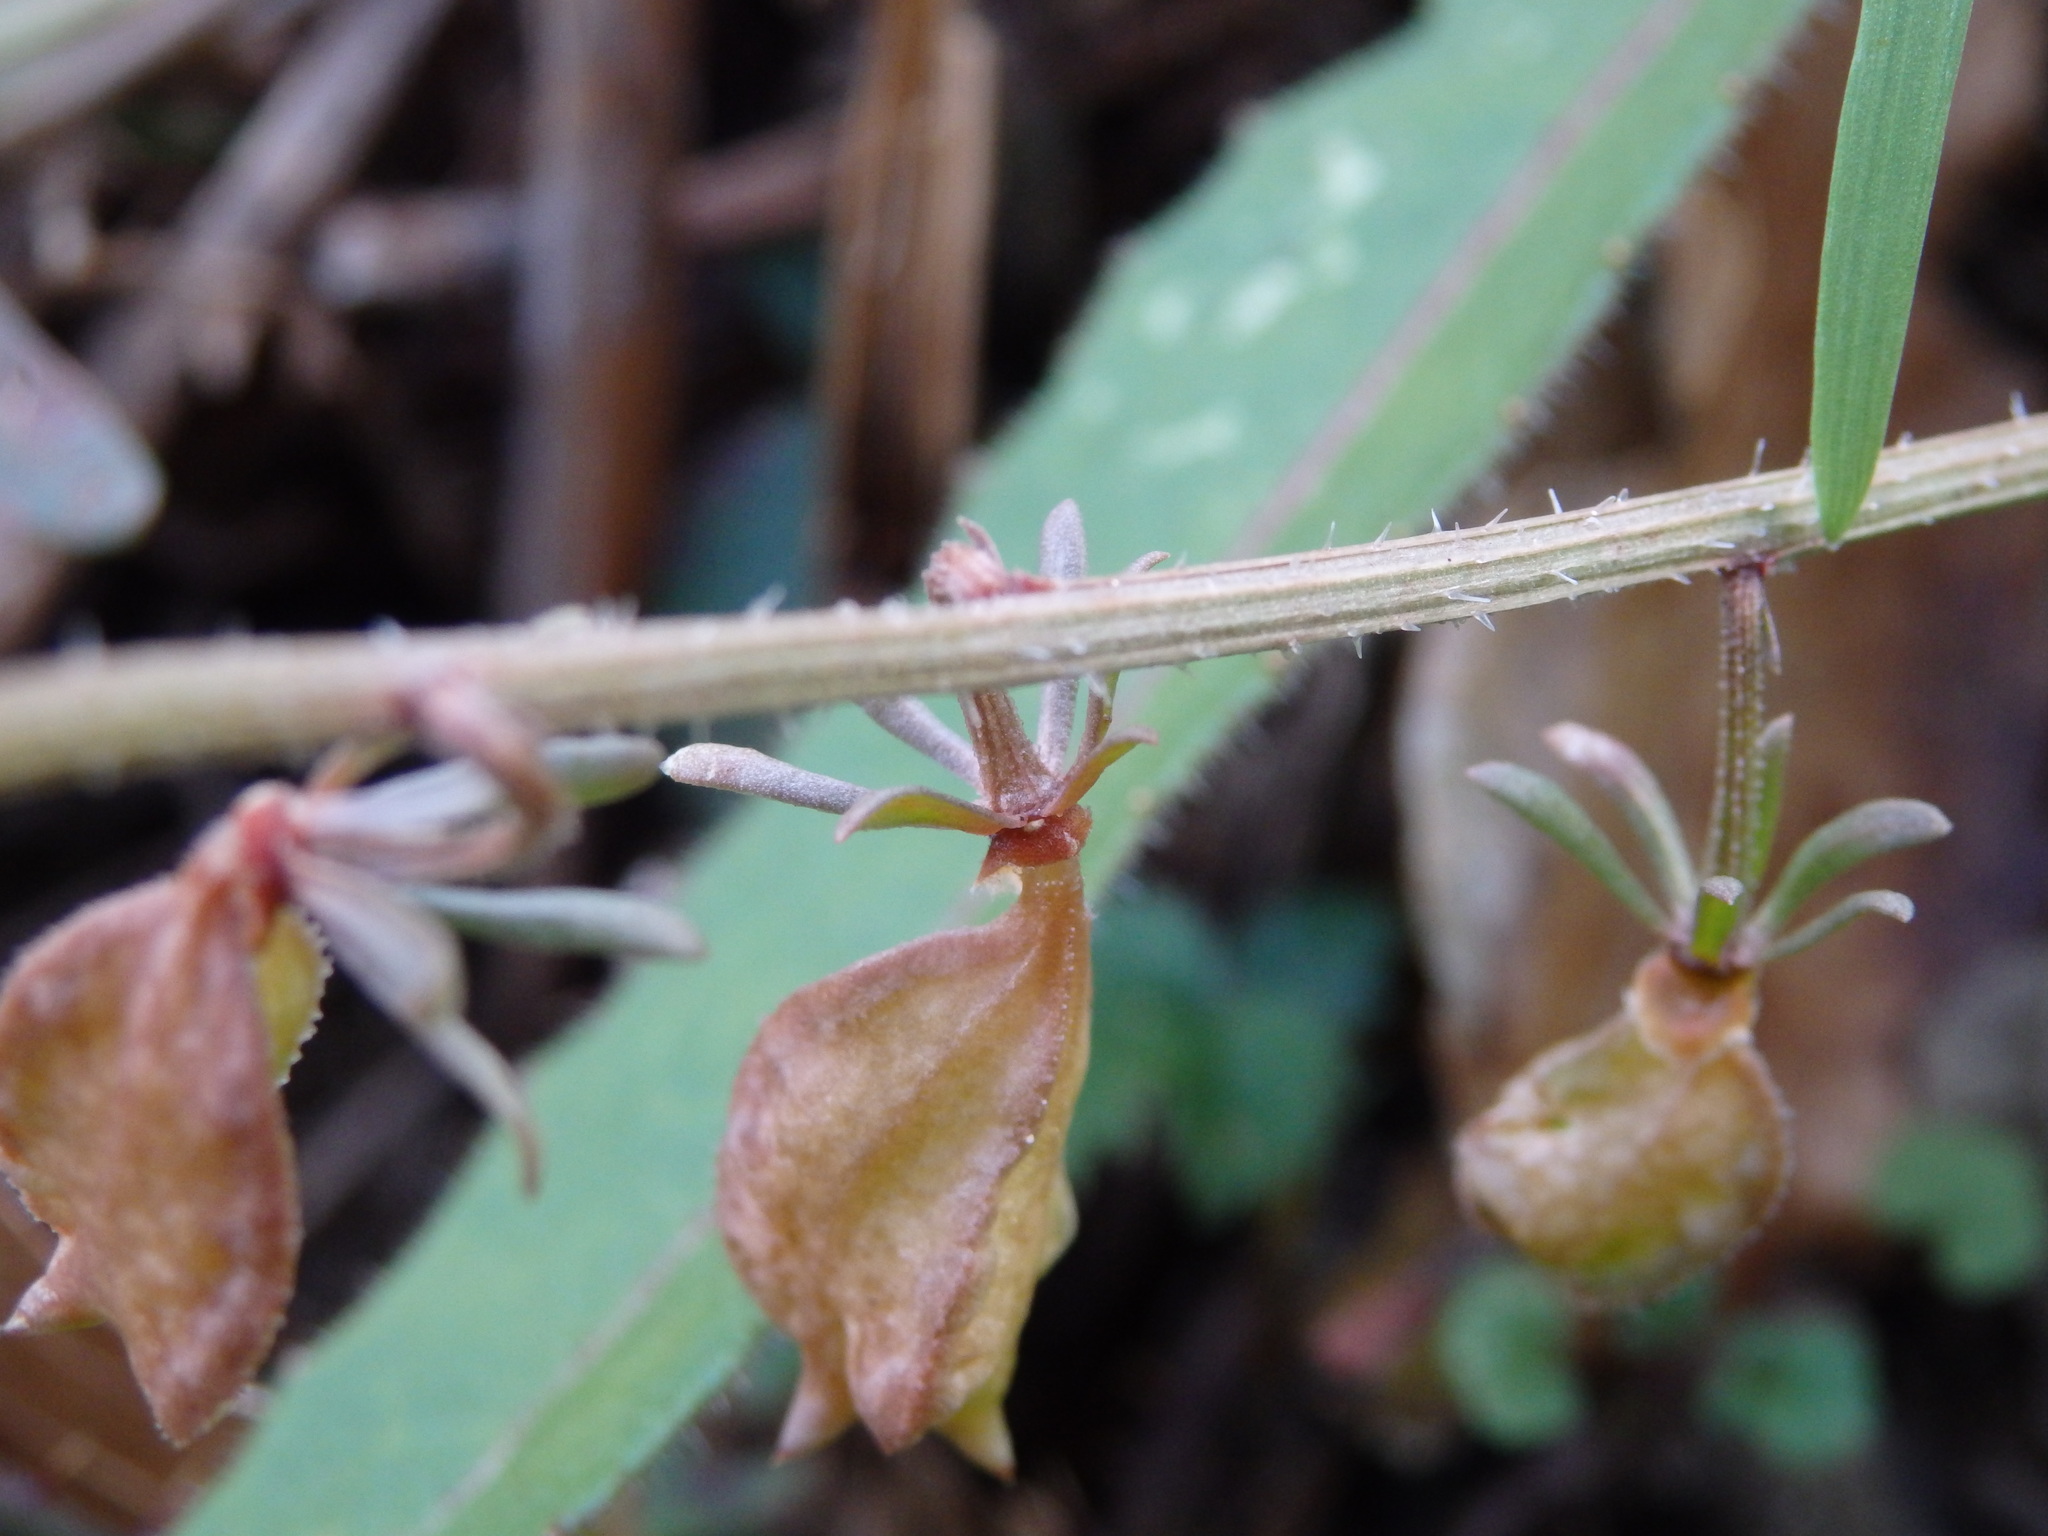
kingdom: Plantae
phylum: Tracheophyta
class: Magnoliopsida
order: Brassicales
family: Resedaceae
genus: Reseda
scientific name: Reseda media
